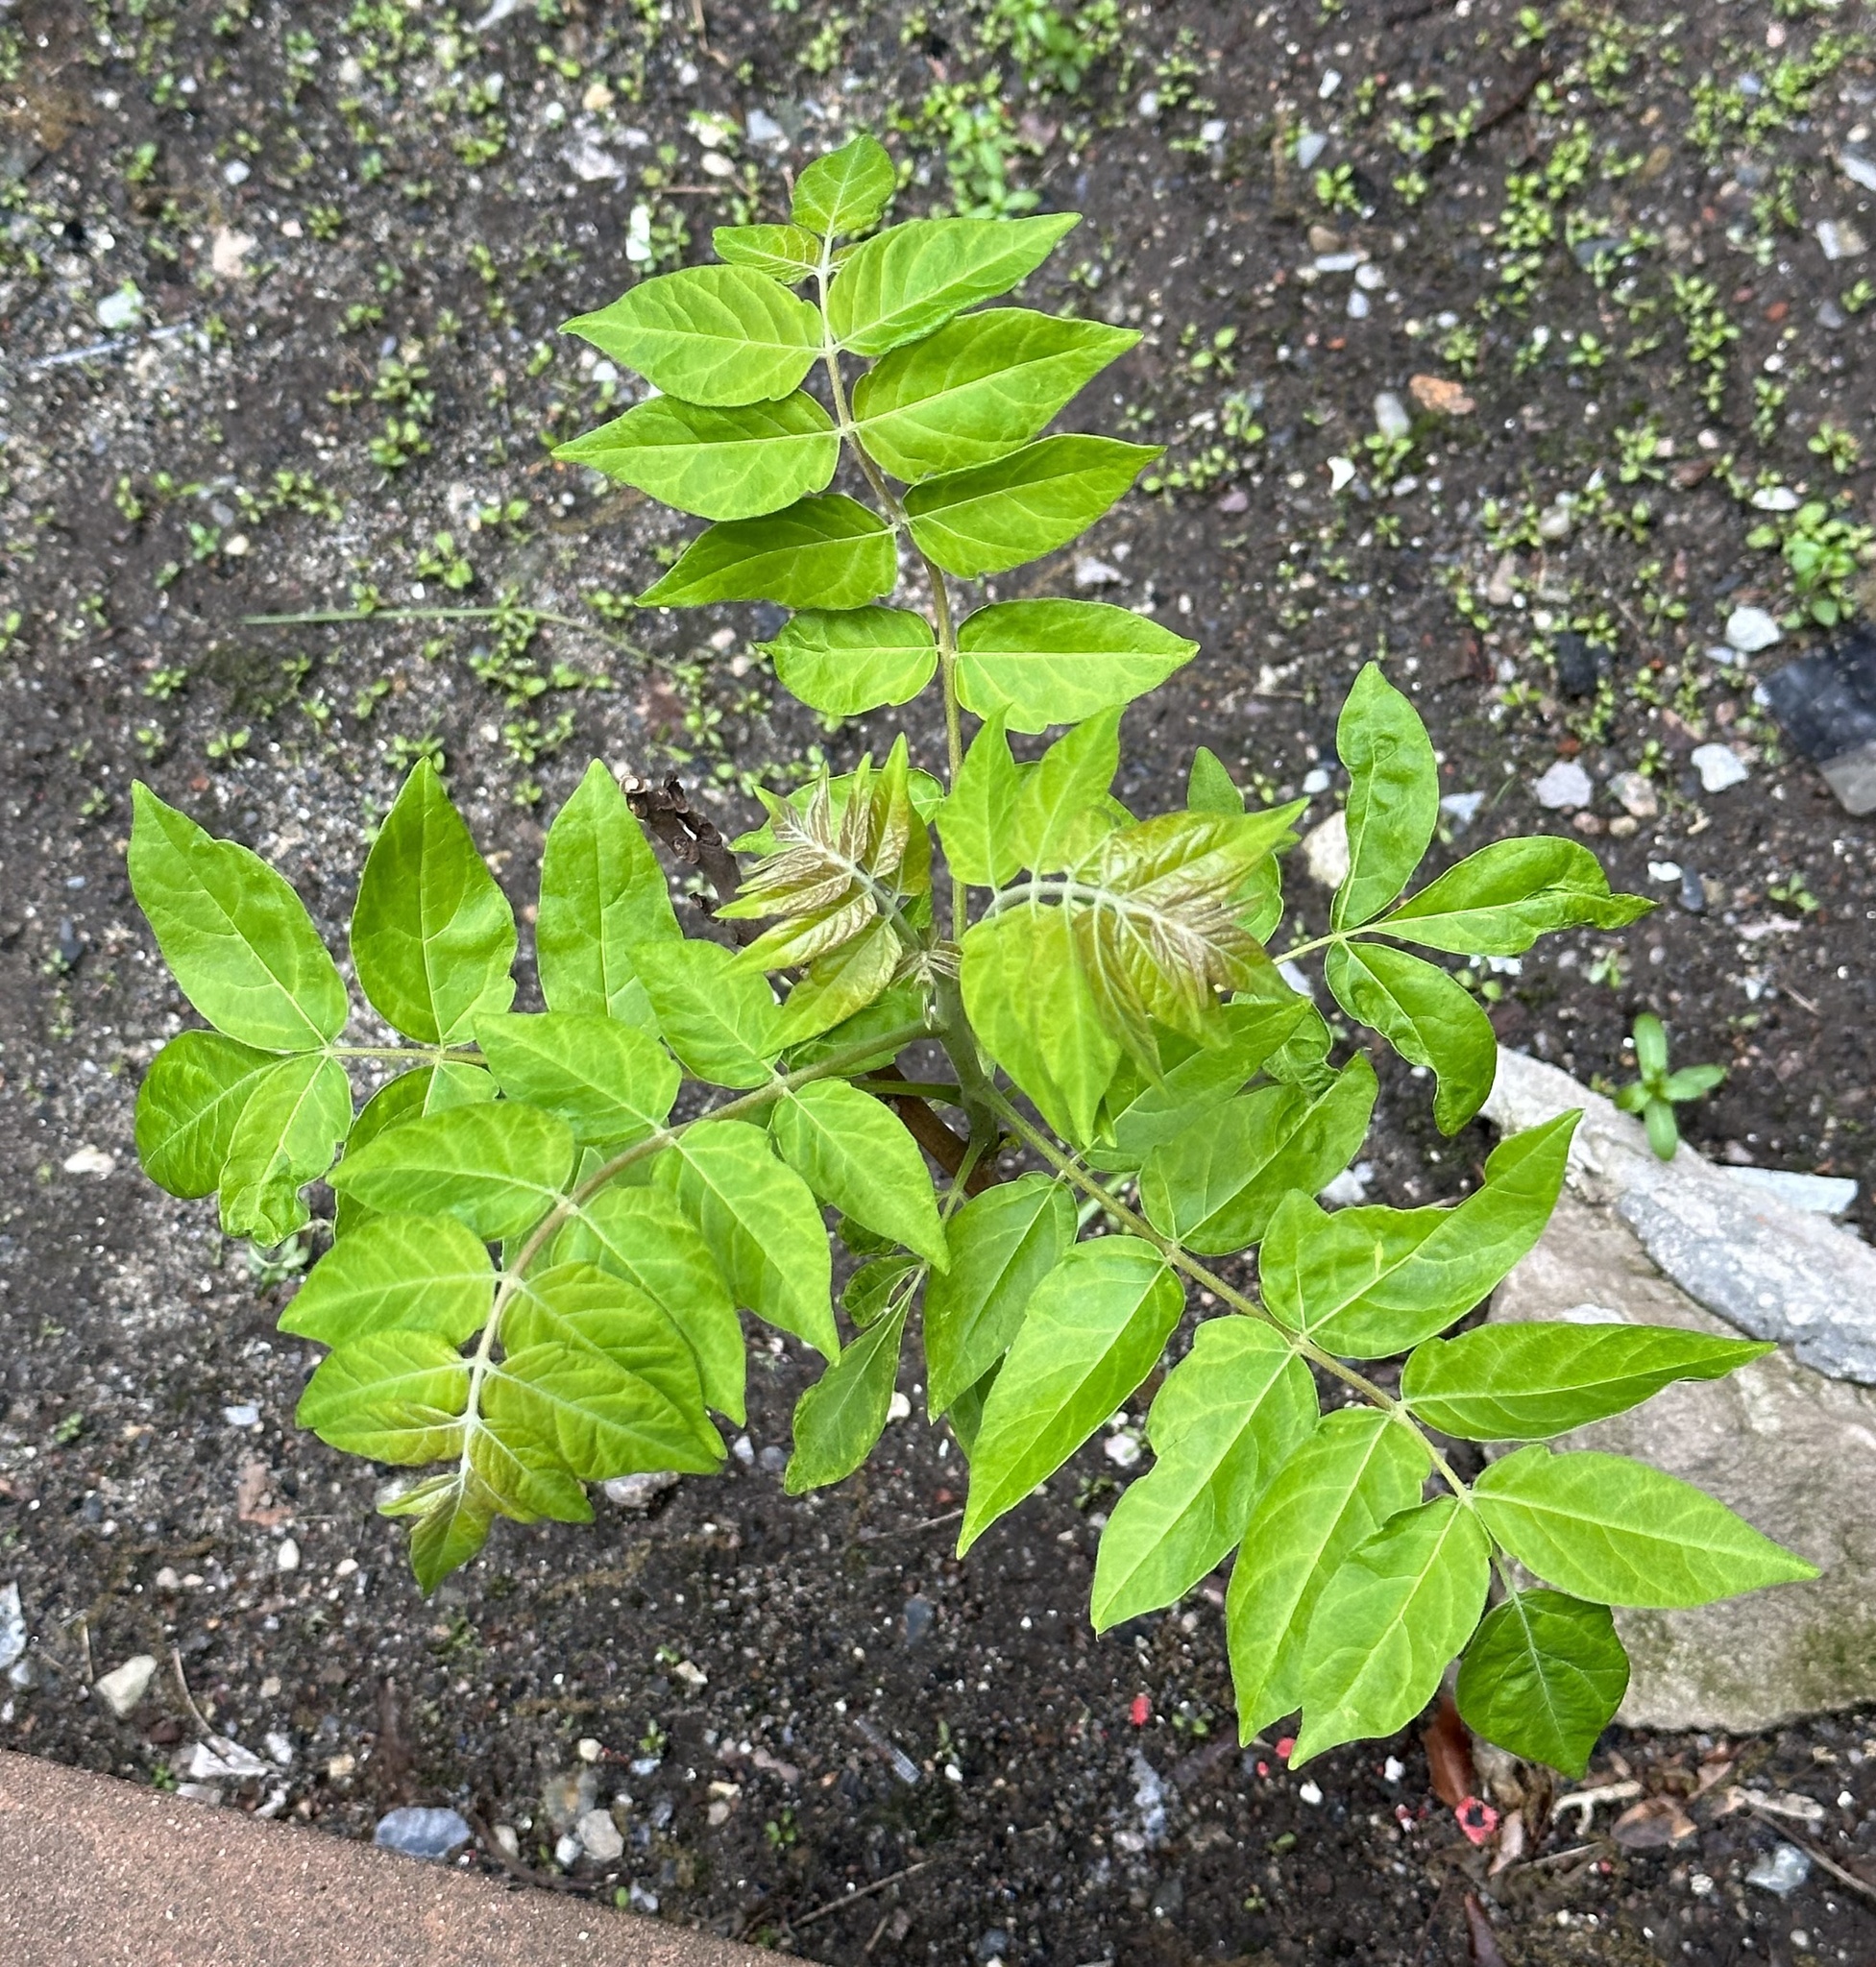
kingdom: Plantae
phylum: Tracheophyta
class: Magnoliopsida
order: Sapindales
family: Simaroubaceae
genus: Ailanthus
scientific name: Ailanthus altissima
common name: Tree-of-heaven
